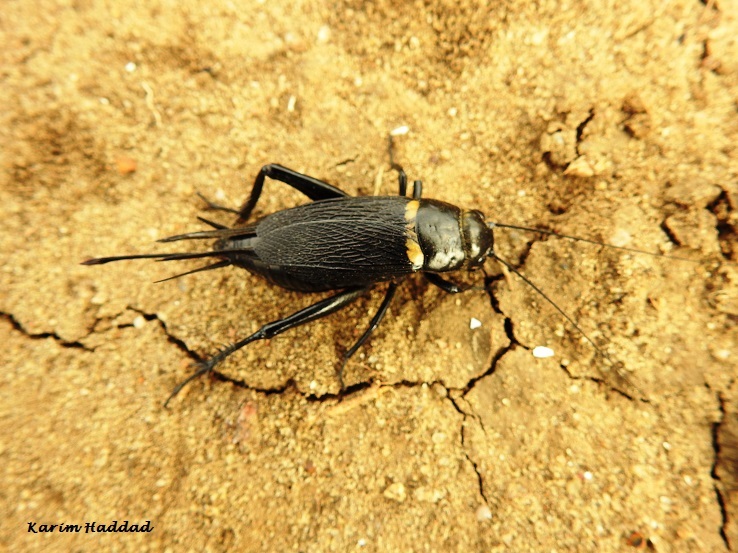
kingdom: Animalia
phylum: Arthropoda
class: Insecta
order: Orthoptera
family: Gryllidae
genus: Gryllus
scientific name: Gryllus bimaculatus
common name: Two-spotted cricket
